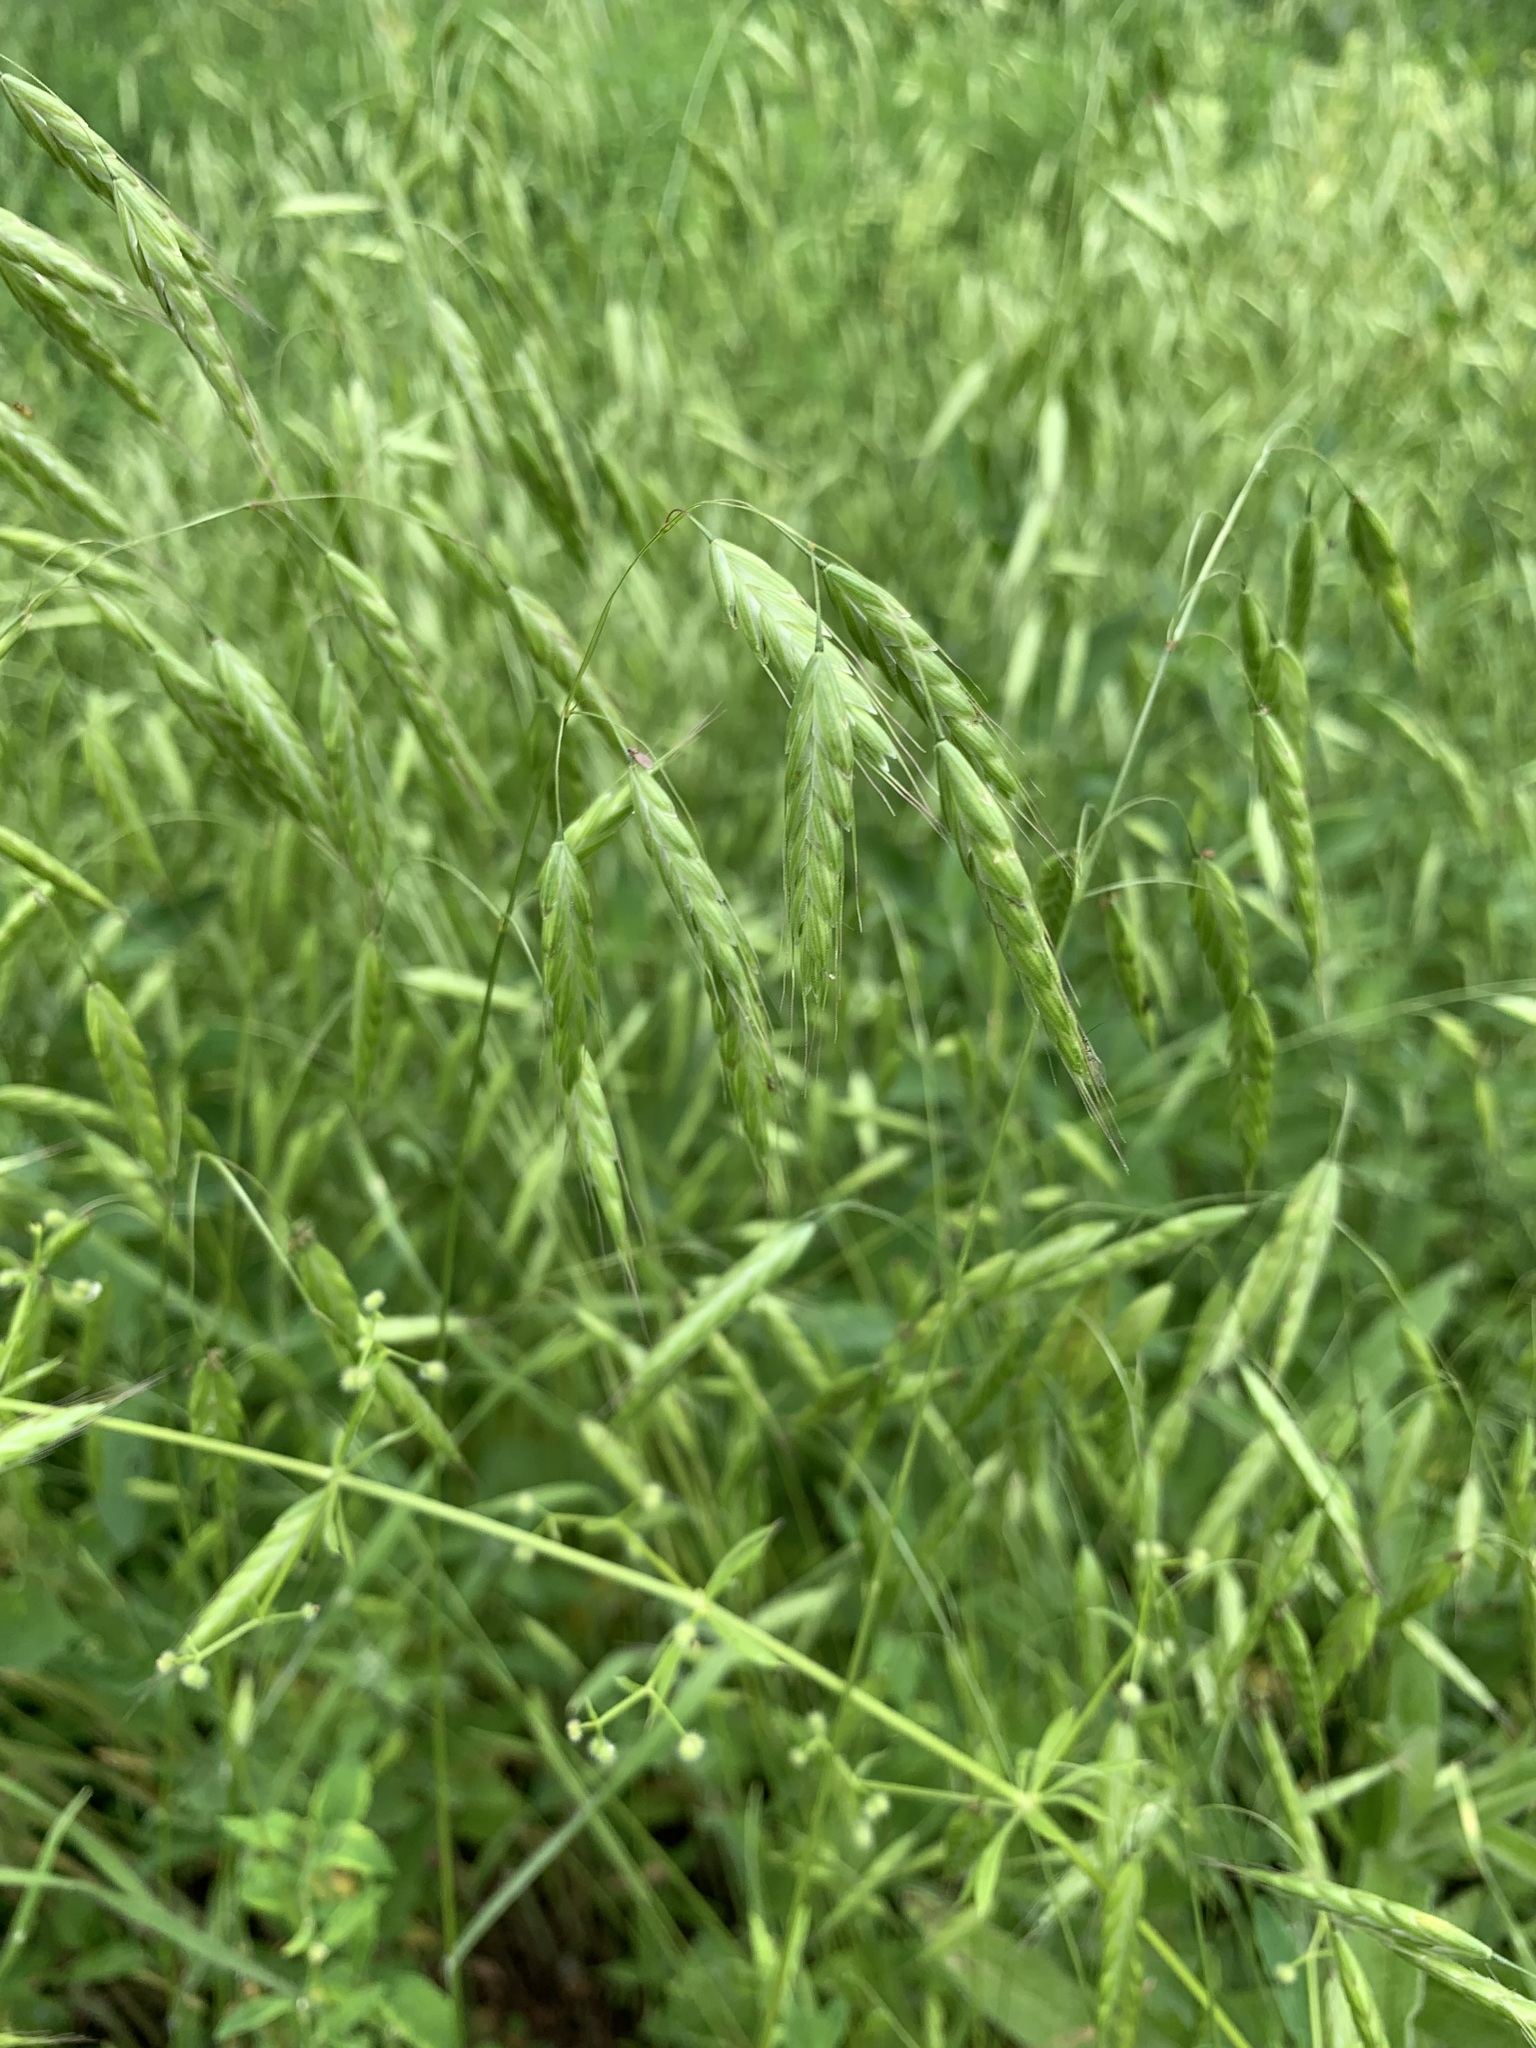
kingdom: Plantae
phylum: Tracheophyta
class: Liliopsida
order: Poales
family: Poaceae
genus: Bromus
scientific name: Bromus squarrosus
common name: Corn brome
